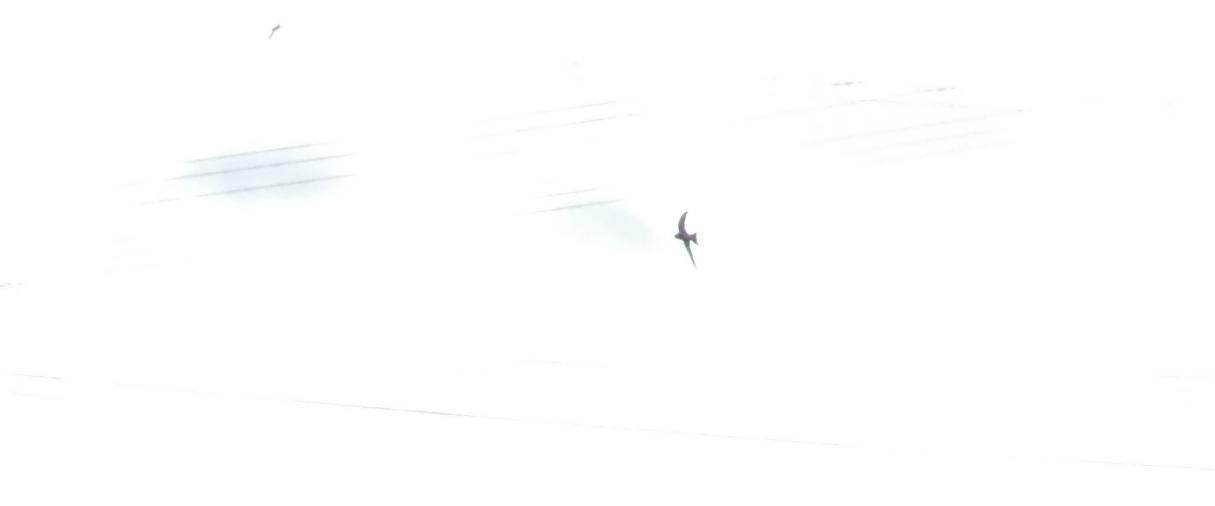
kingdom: Animalia
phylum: Chordata
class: Aves
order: Apodiformes
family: Apodidae
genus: Apus
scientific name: Apus apus
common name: Common swift
